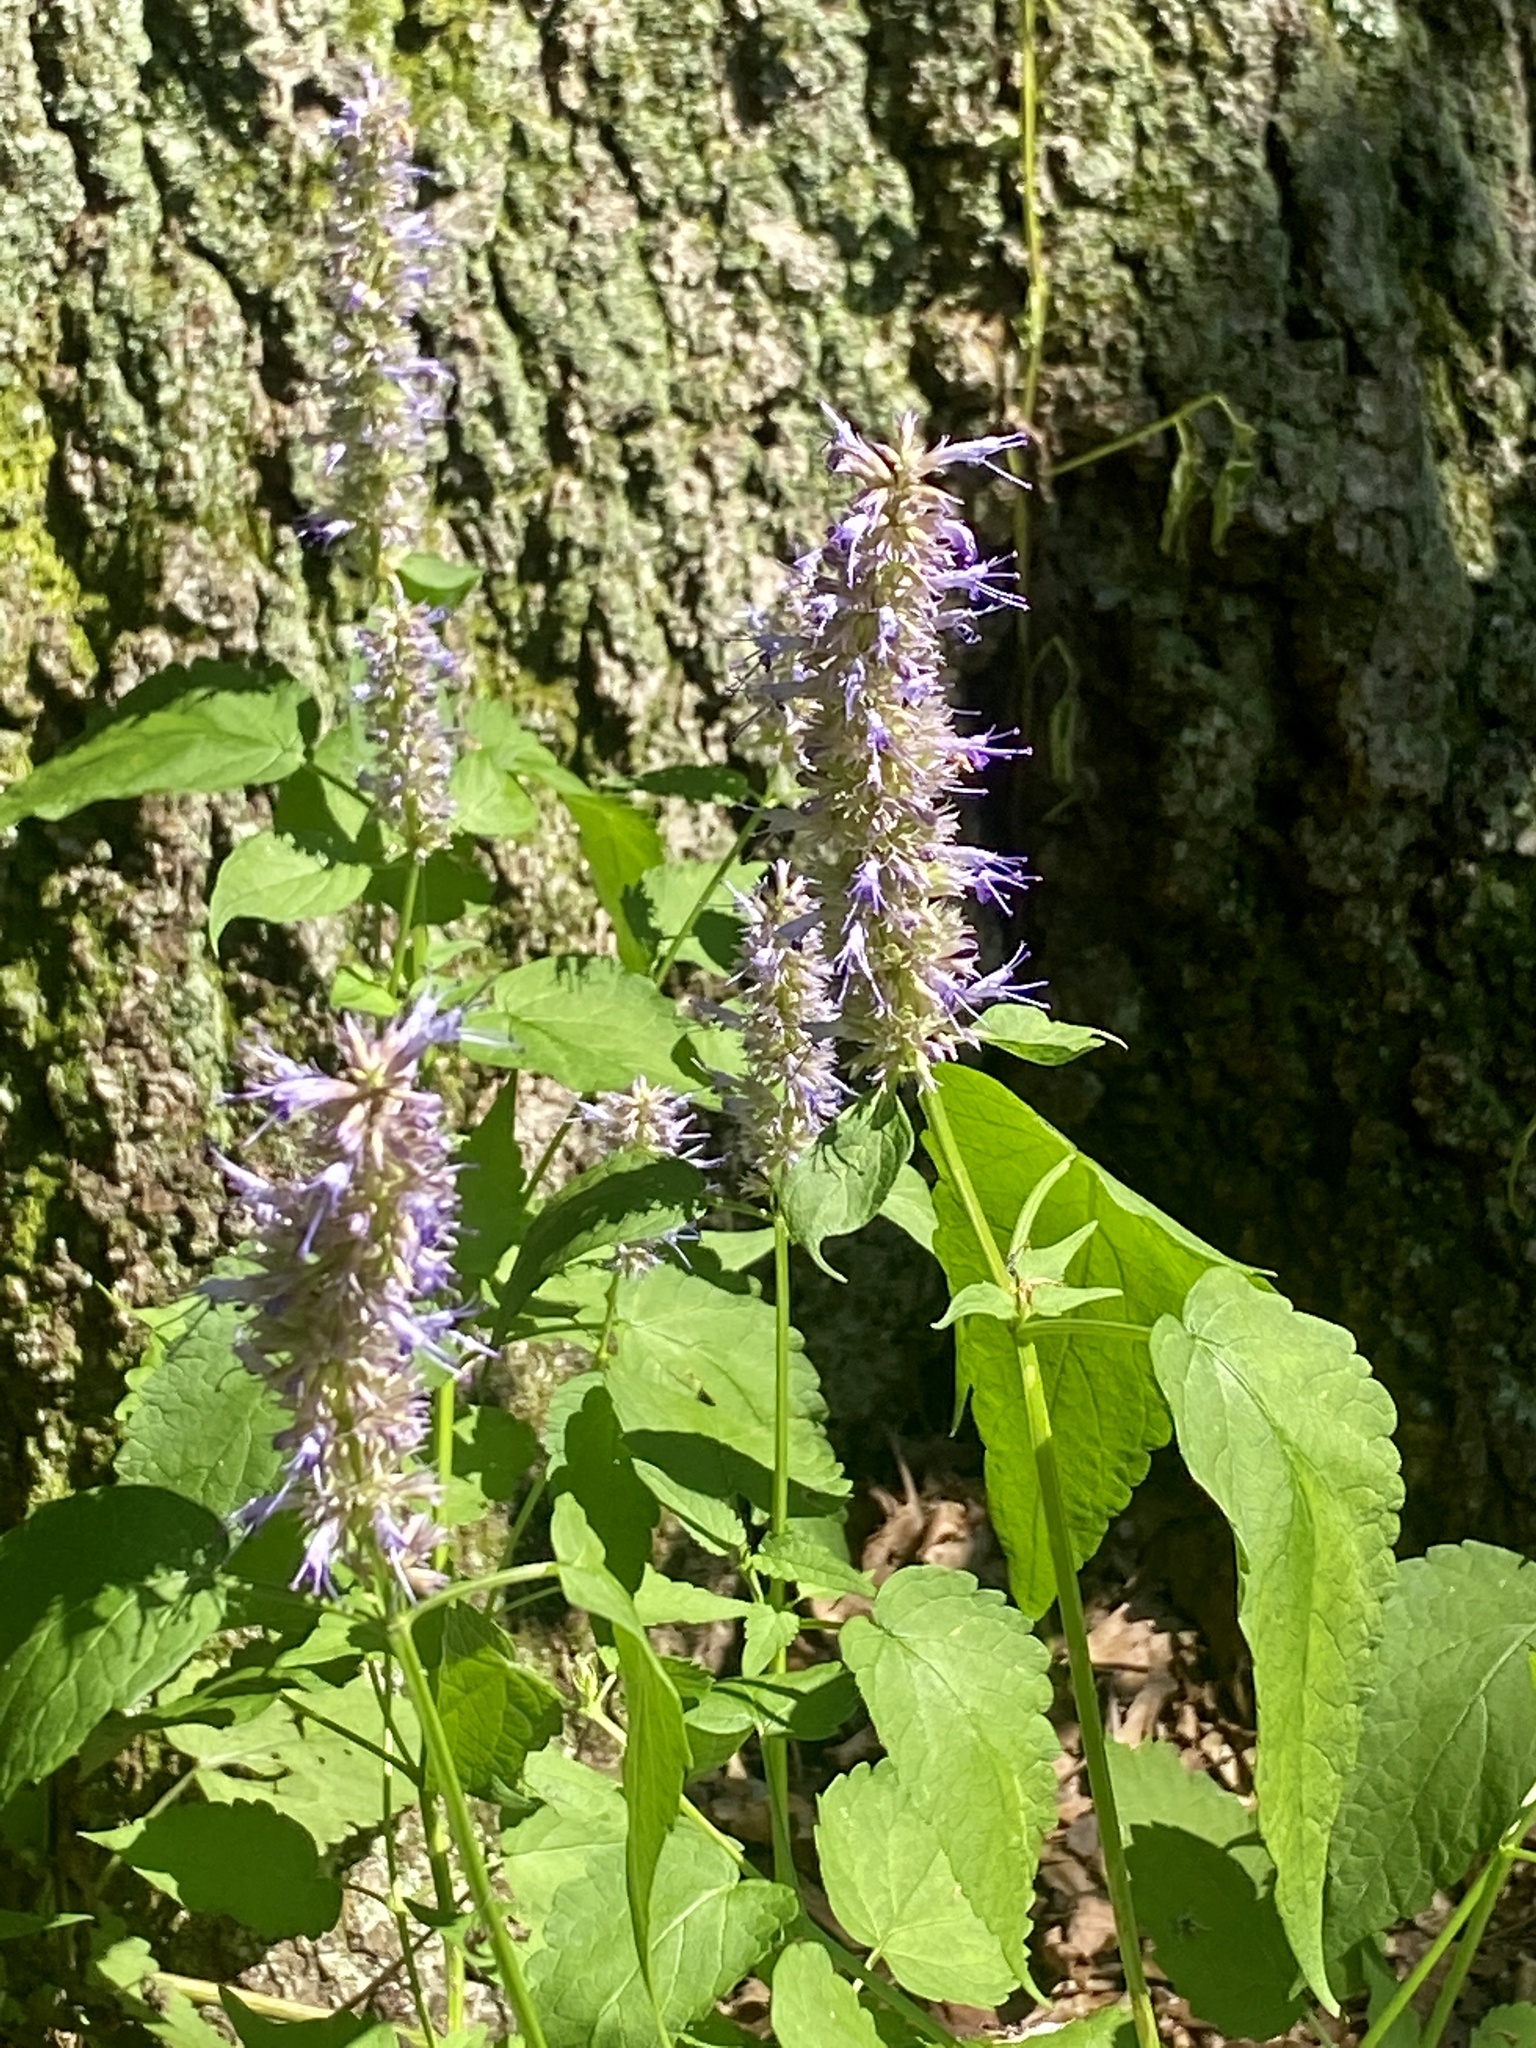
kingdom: Plantae
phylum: Tracheophyta
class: Magnoliopsida
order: Lamiales
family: Lamiaceae
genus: Agastache
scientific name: Agastache foeniculum
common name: Anise hyssop
